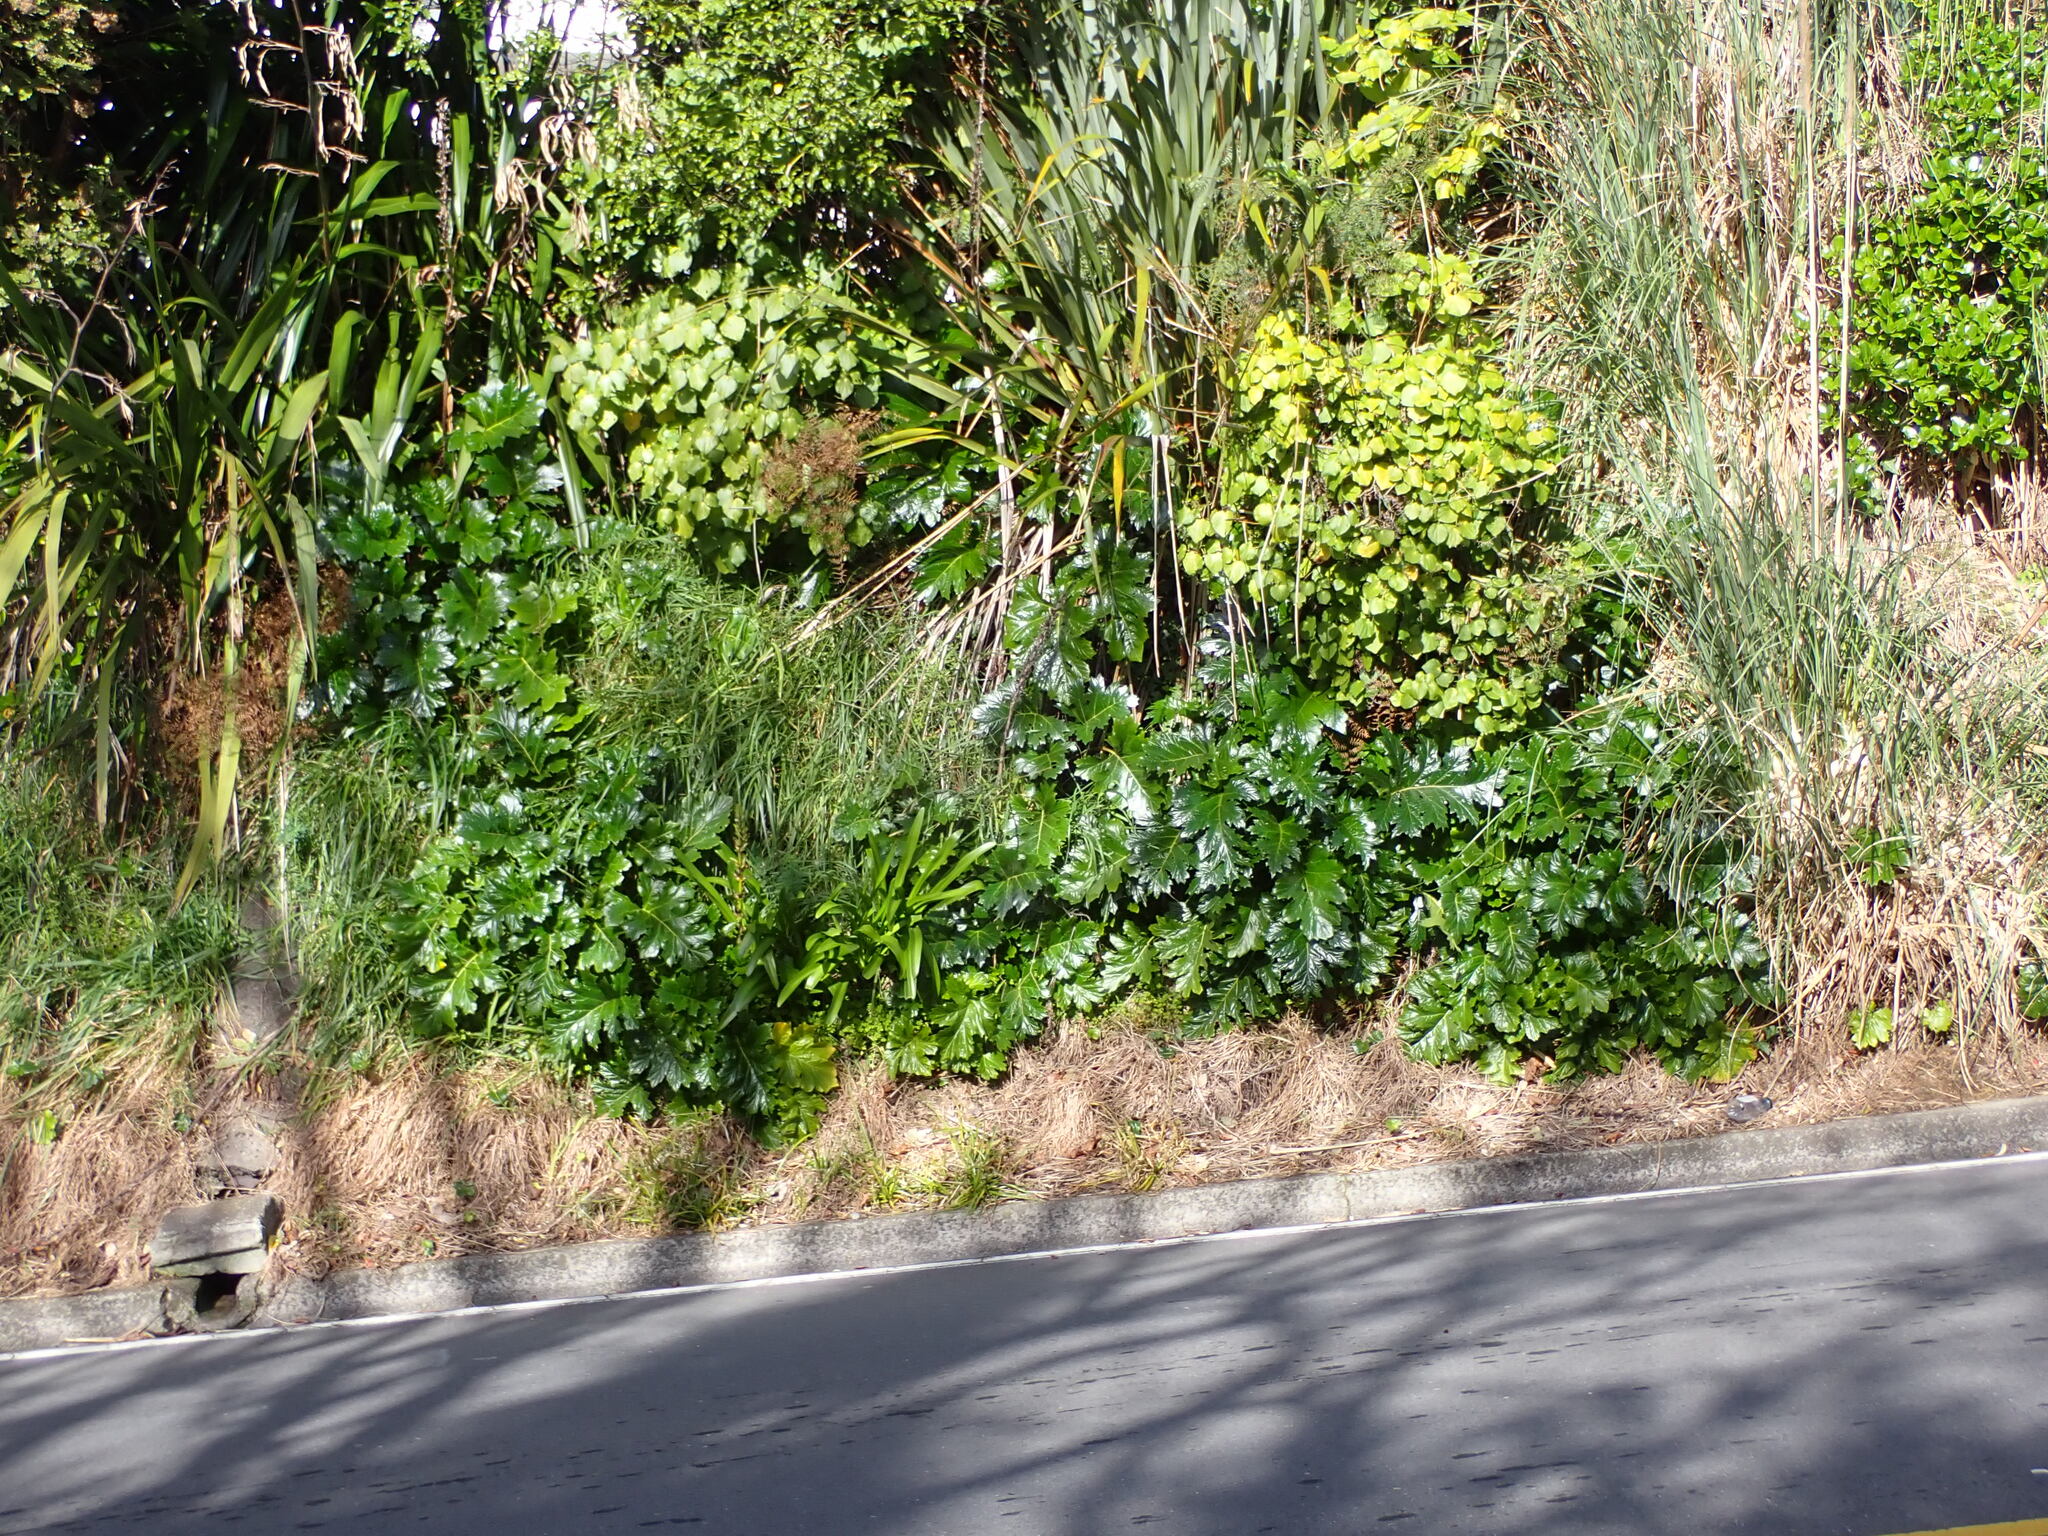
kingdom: Plantae
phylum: Tracheophyta
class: Magnoliopsida
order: Lamiales
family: Acanthaceae
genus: Acanthus
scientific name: Acanthus mollis
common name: Bear's-breech
